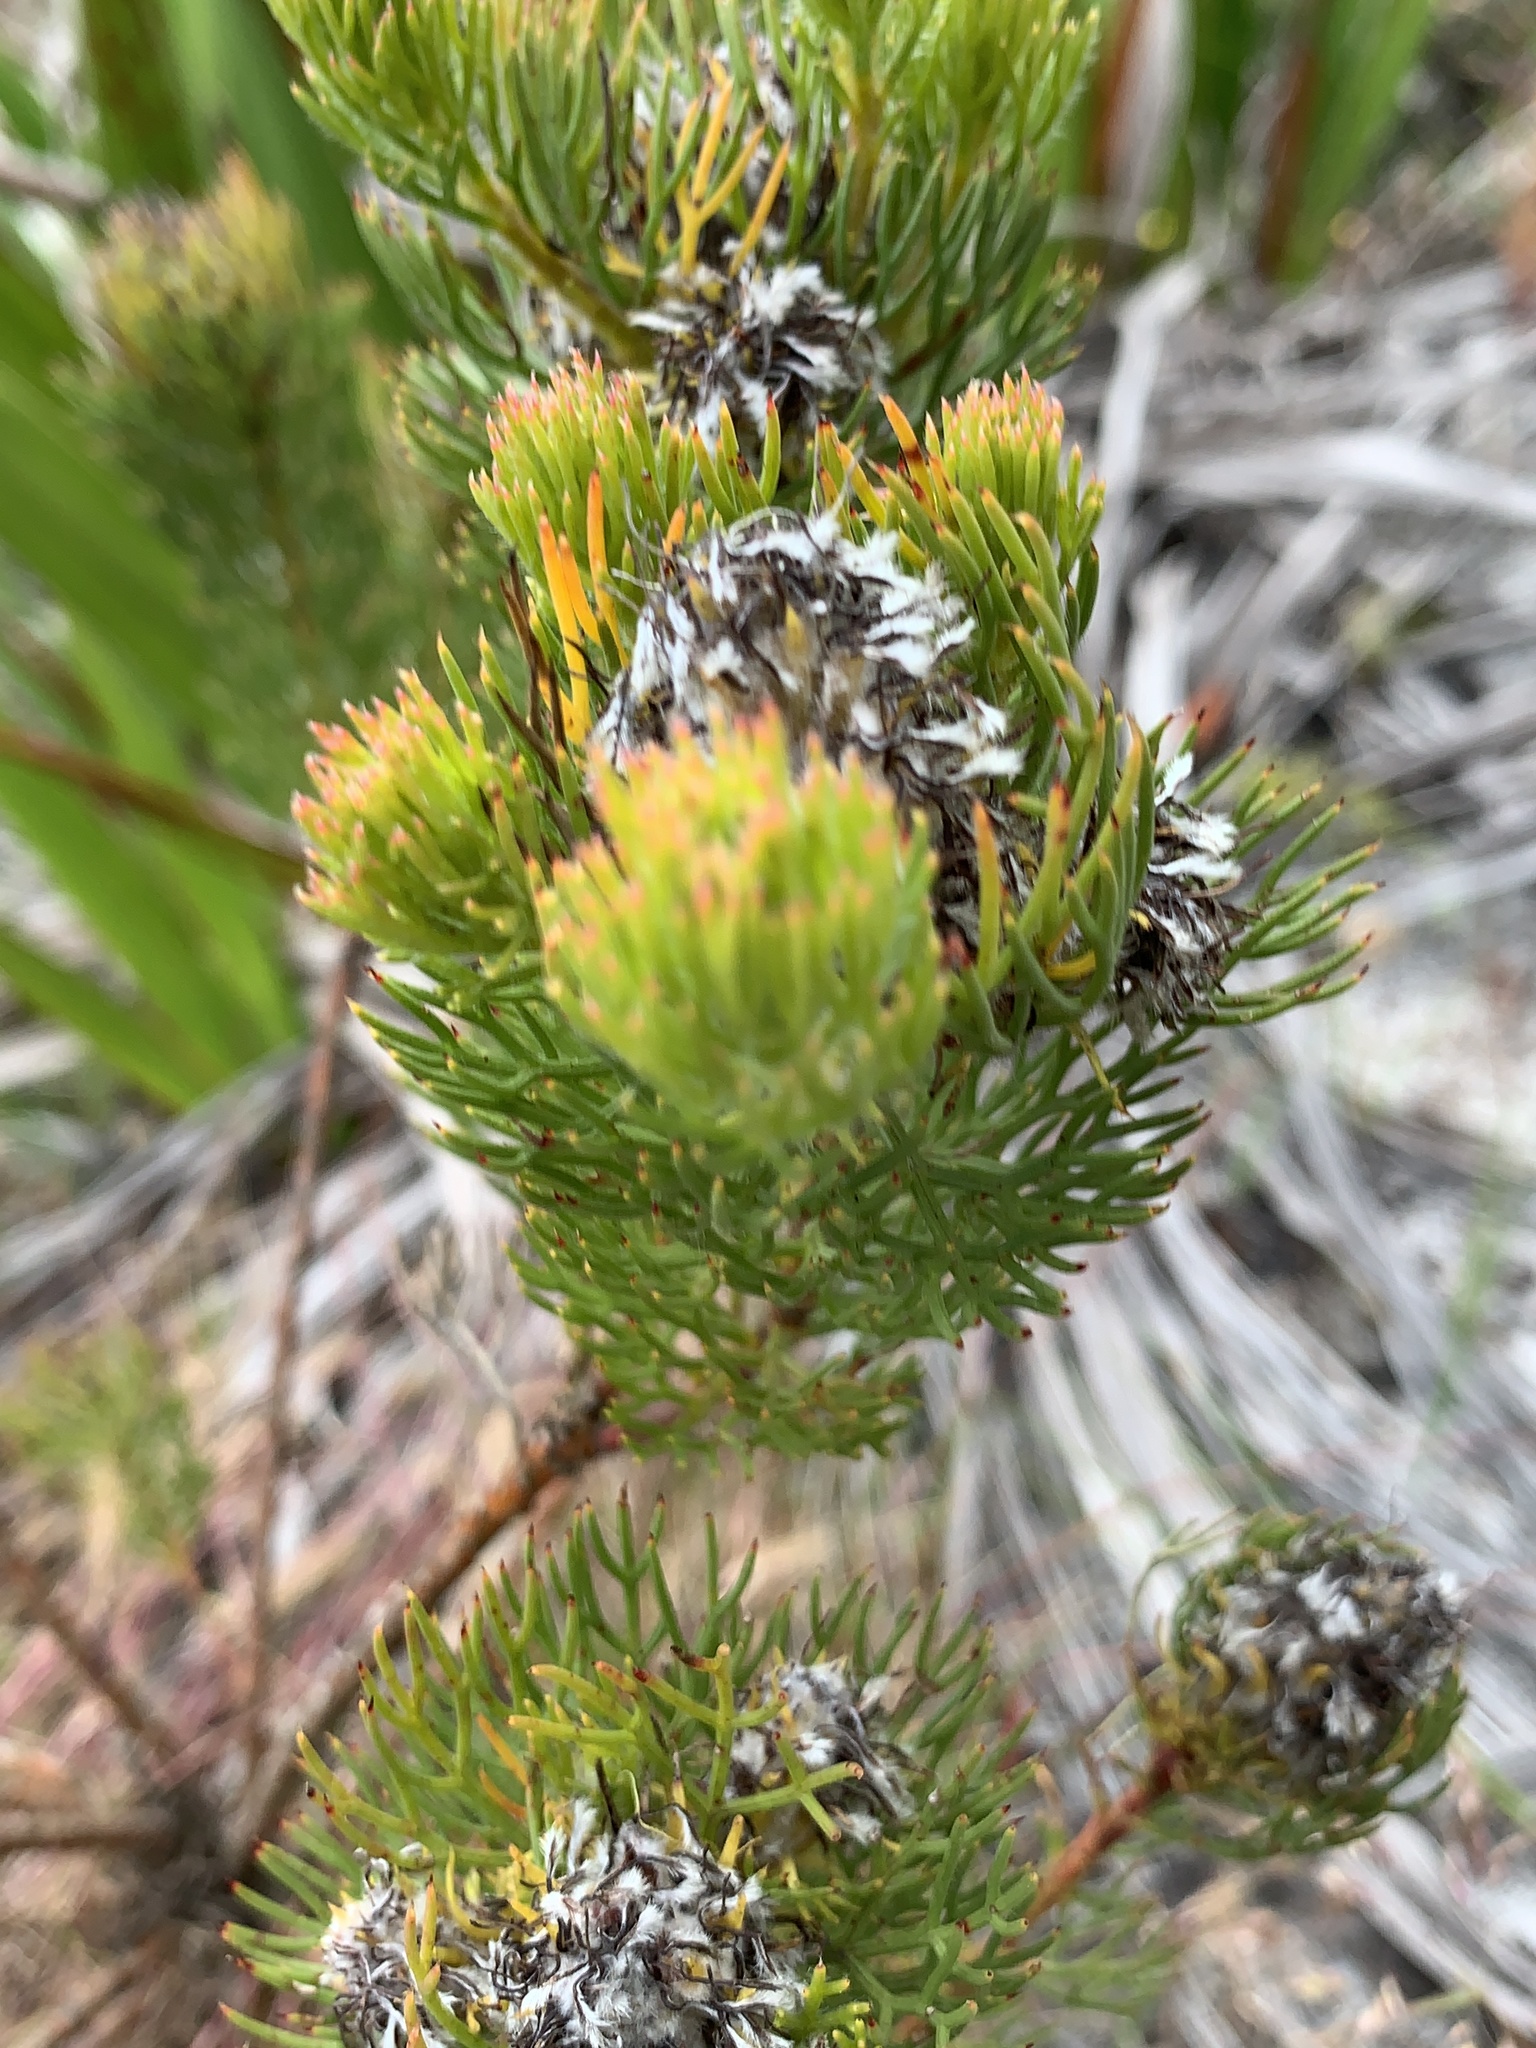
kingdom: Plantae
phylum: Tracheophyta
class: Magnoliopsida
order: Proteales
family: Proteaceae
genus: Serruria
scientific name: Serruria villosa
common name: Golden spiderhead
